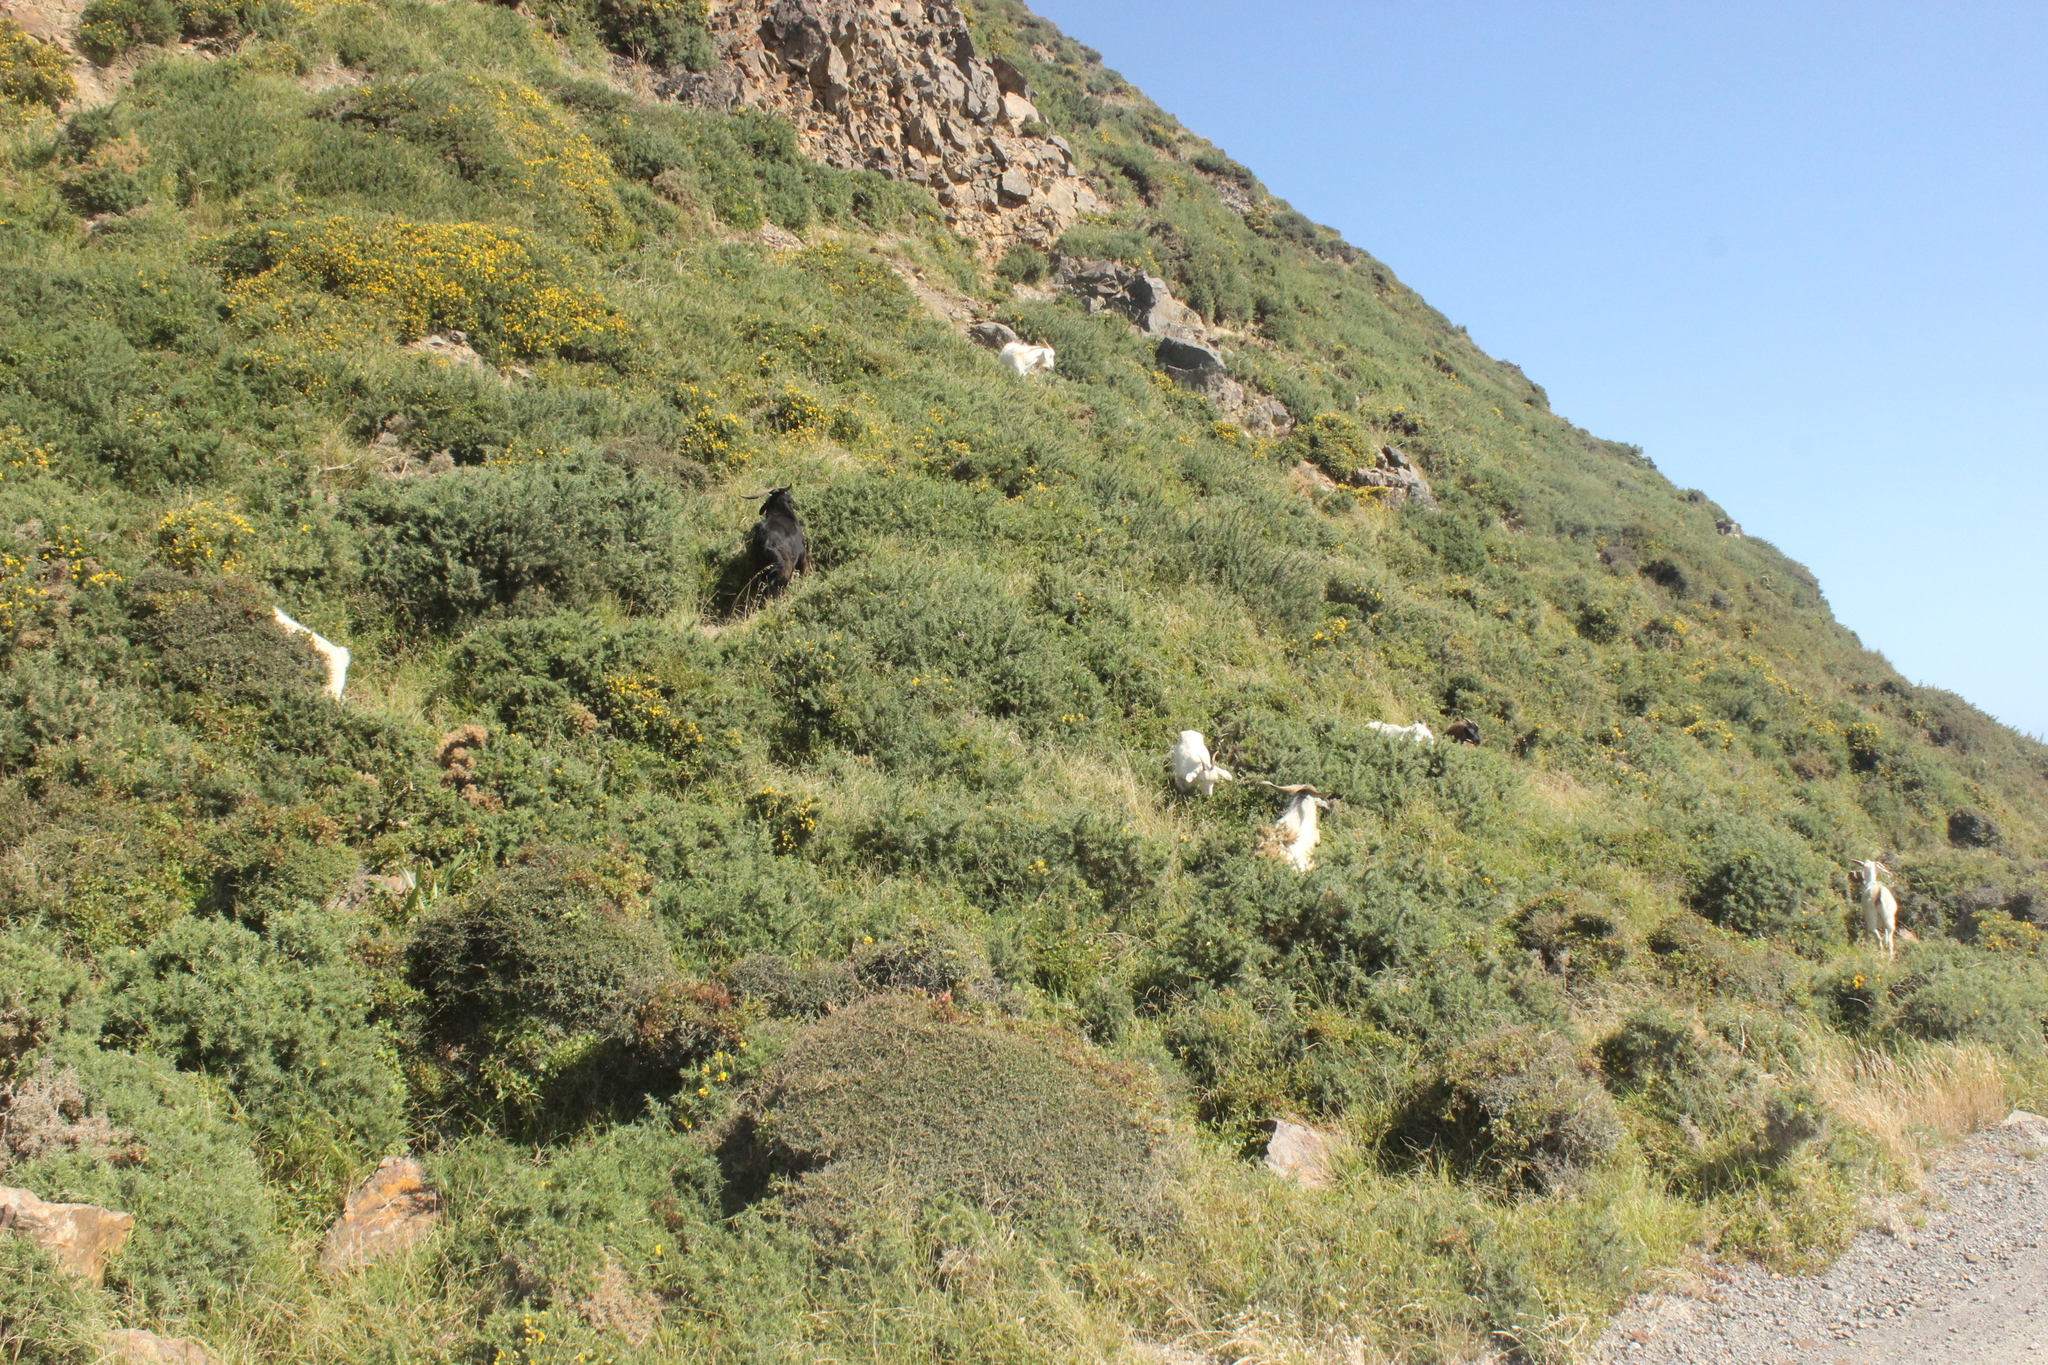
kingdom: Animalia
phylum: Chordata
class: Mammalia
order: Artiodactyla
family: Bovidae
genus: Capra
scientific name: Capra hircus
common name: Domestic goat
